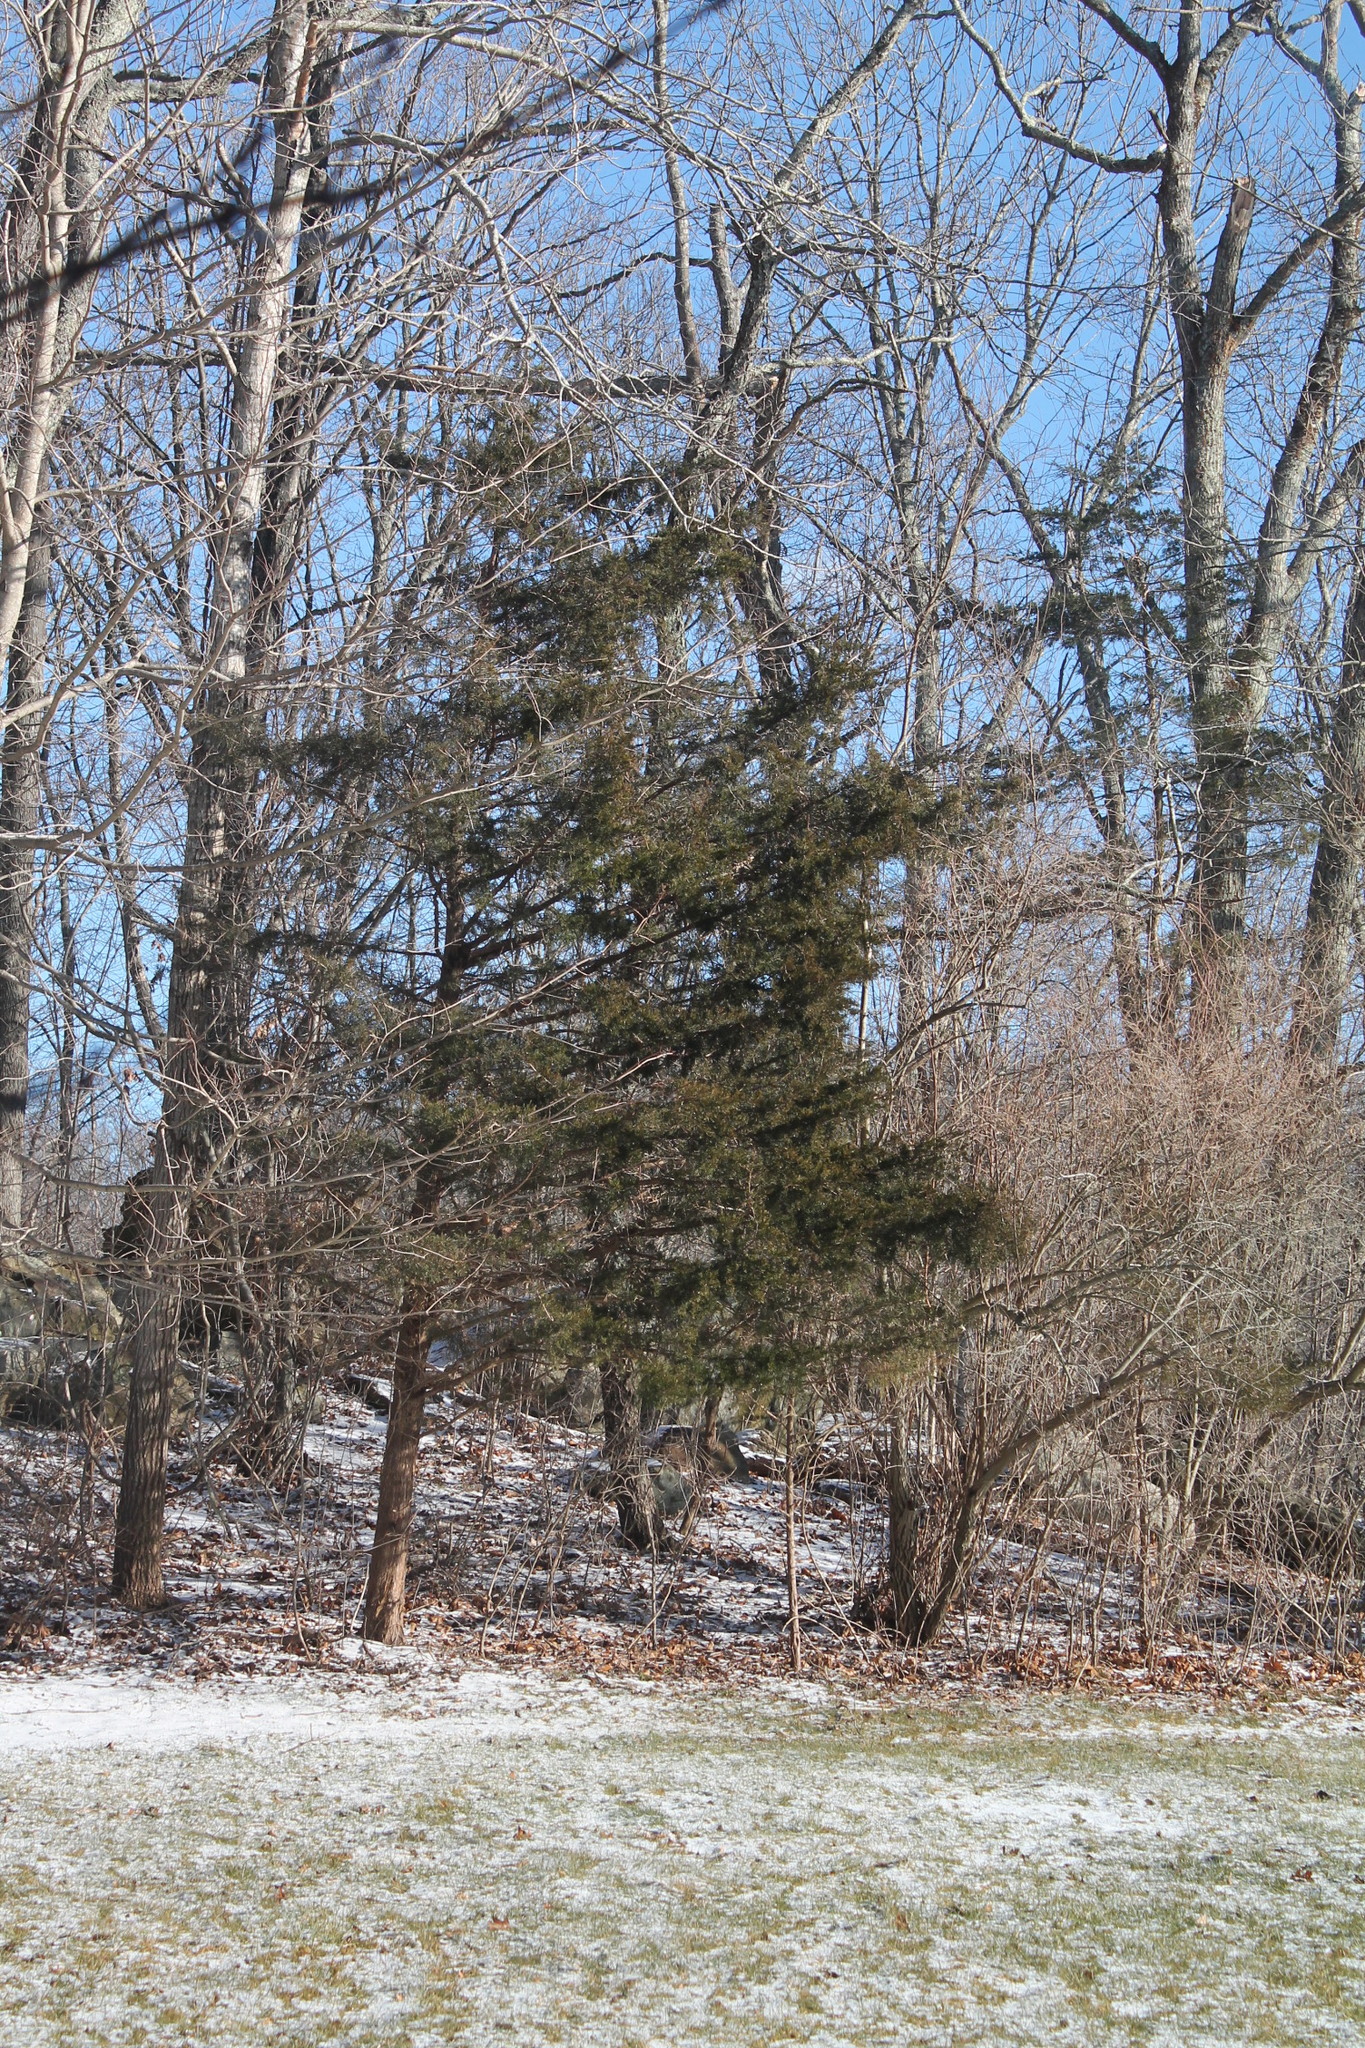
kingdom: Plantae
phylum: Tracheophyta
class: Pinopsida
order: Pinales
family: Cupressaceae
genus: Juniperus
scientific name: Juniperus virginiana
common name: Red juniper
